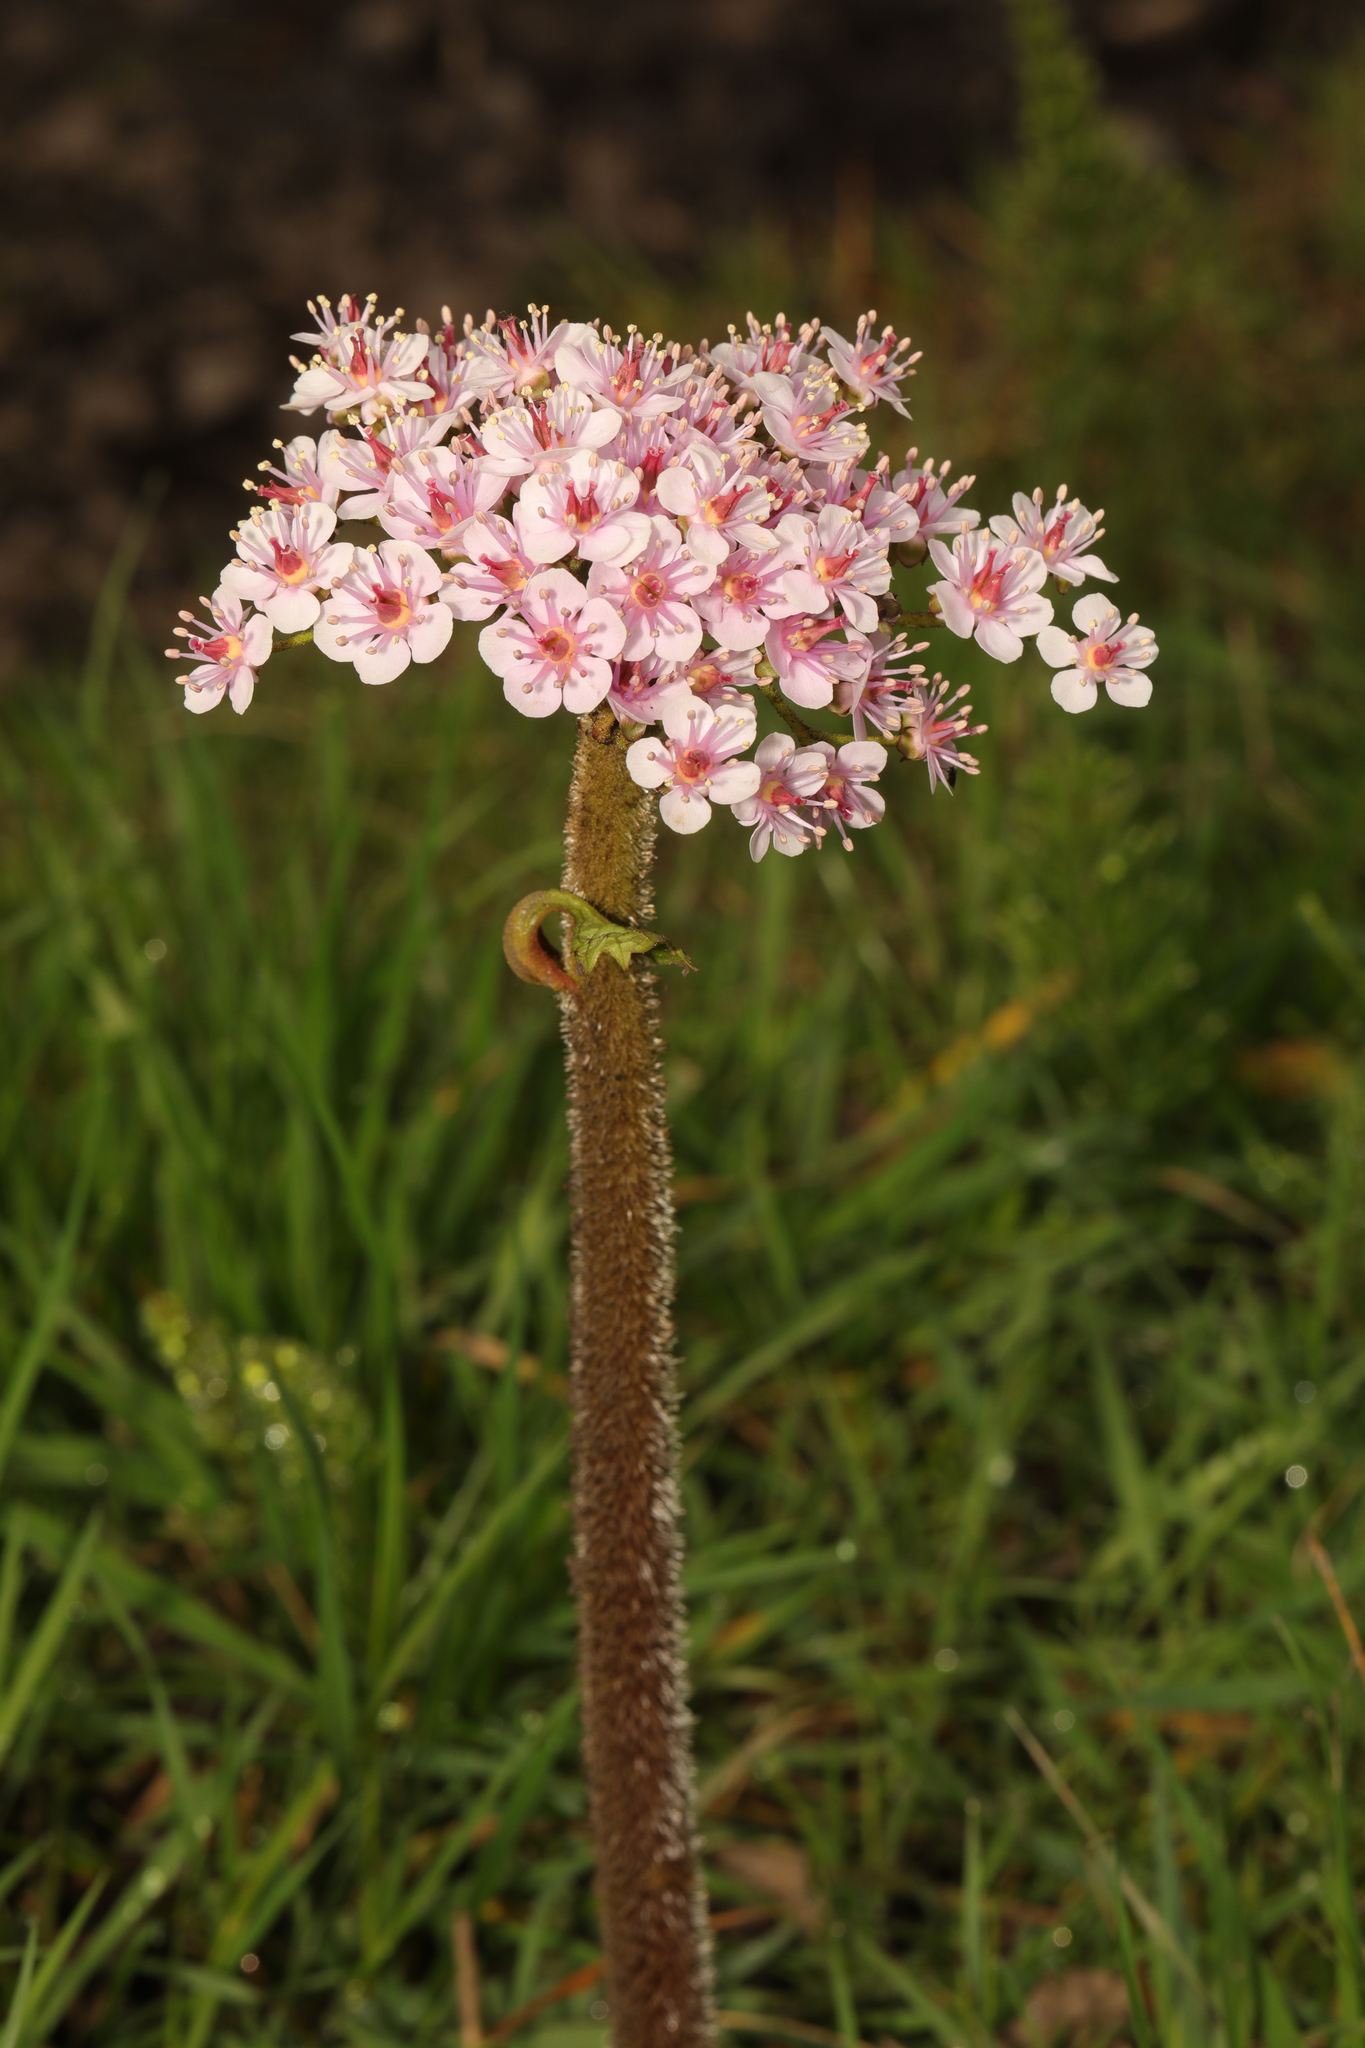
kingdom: Plantae
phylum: Tracheophyta
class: Magnoliopsida
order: Saxifragales
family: Saxifragaceae
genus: Darmera
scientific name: Darmera peltata
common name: Indian-rhubarb
